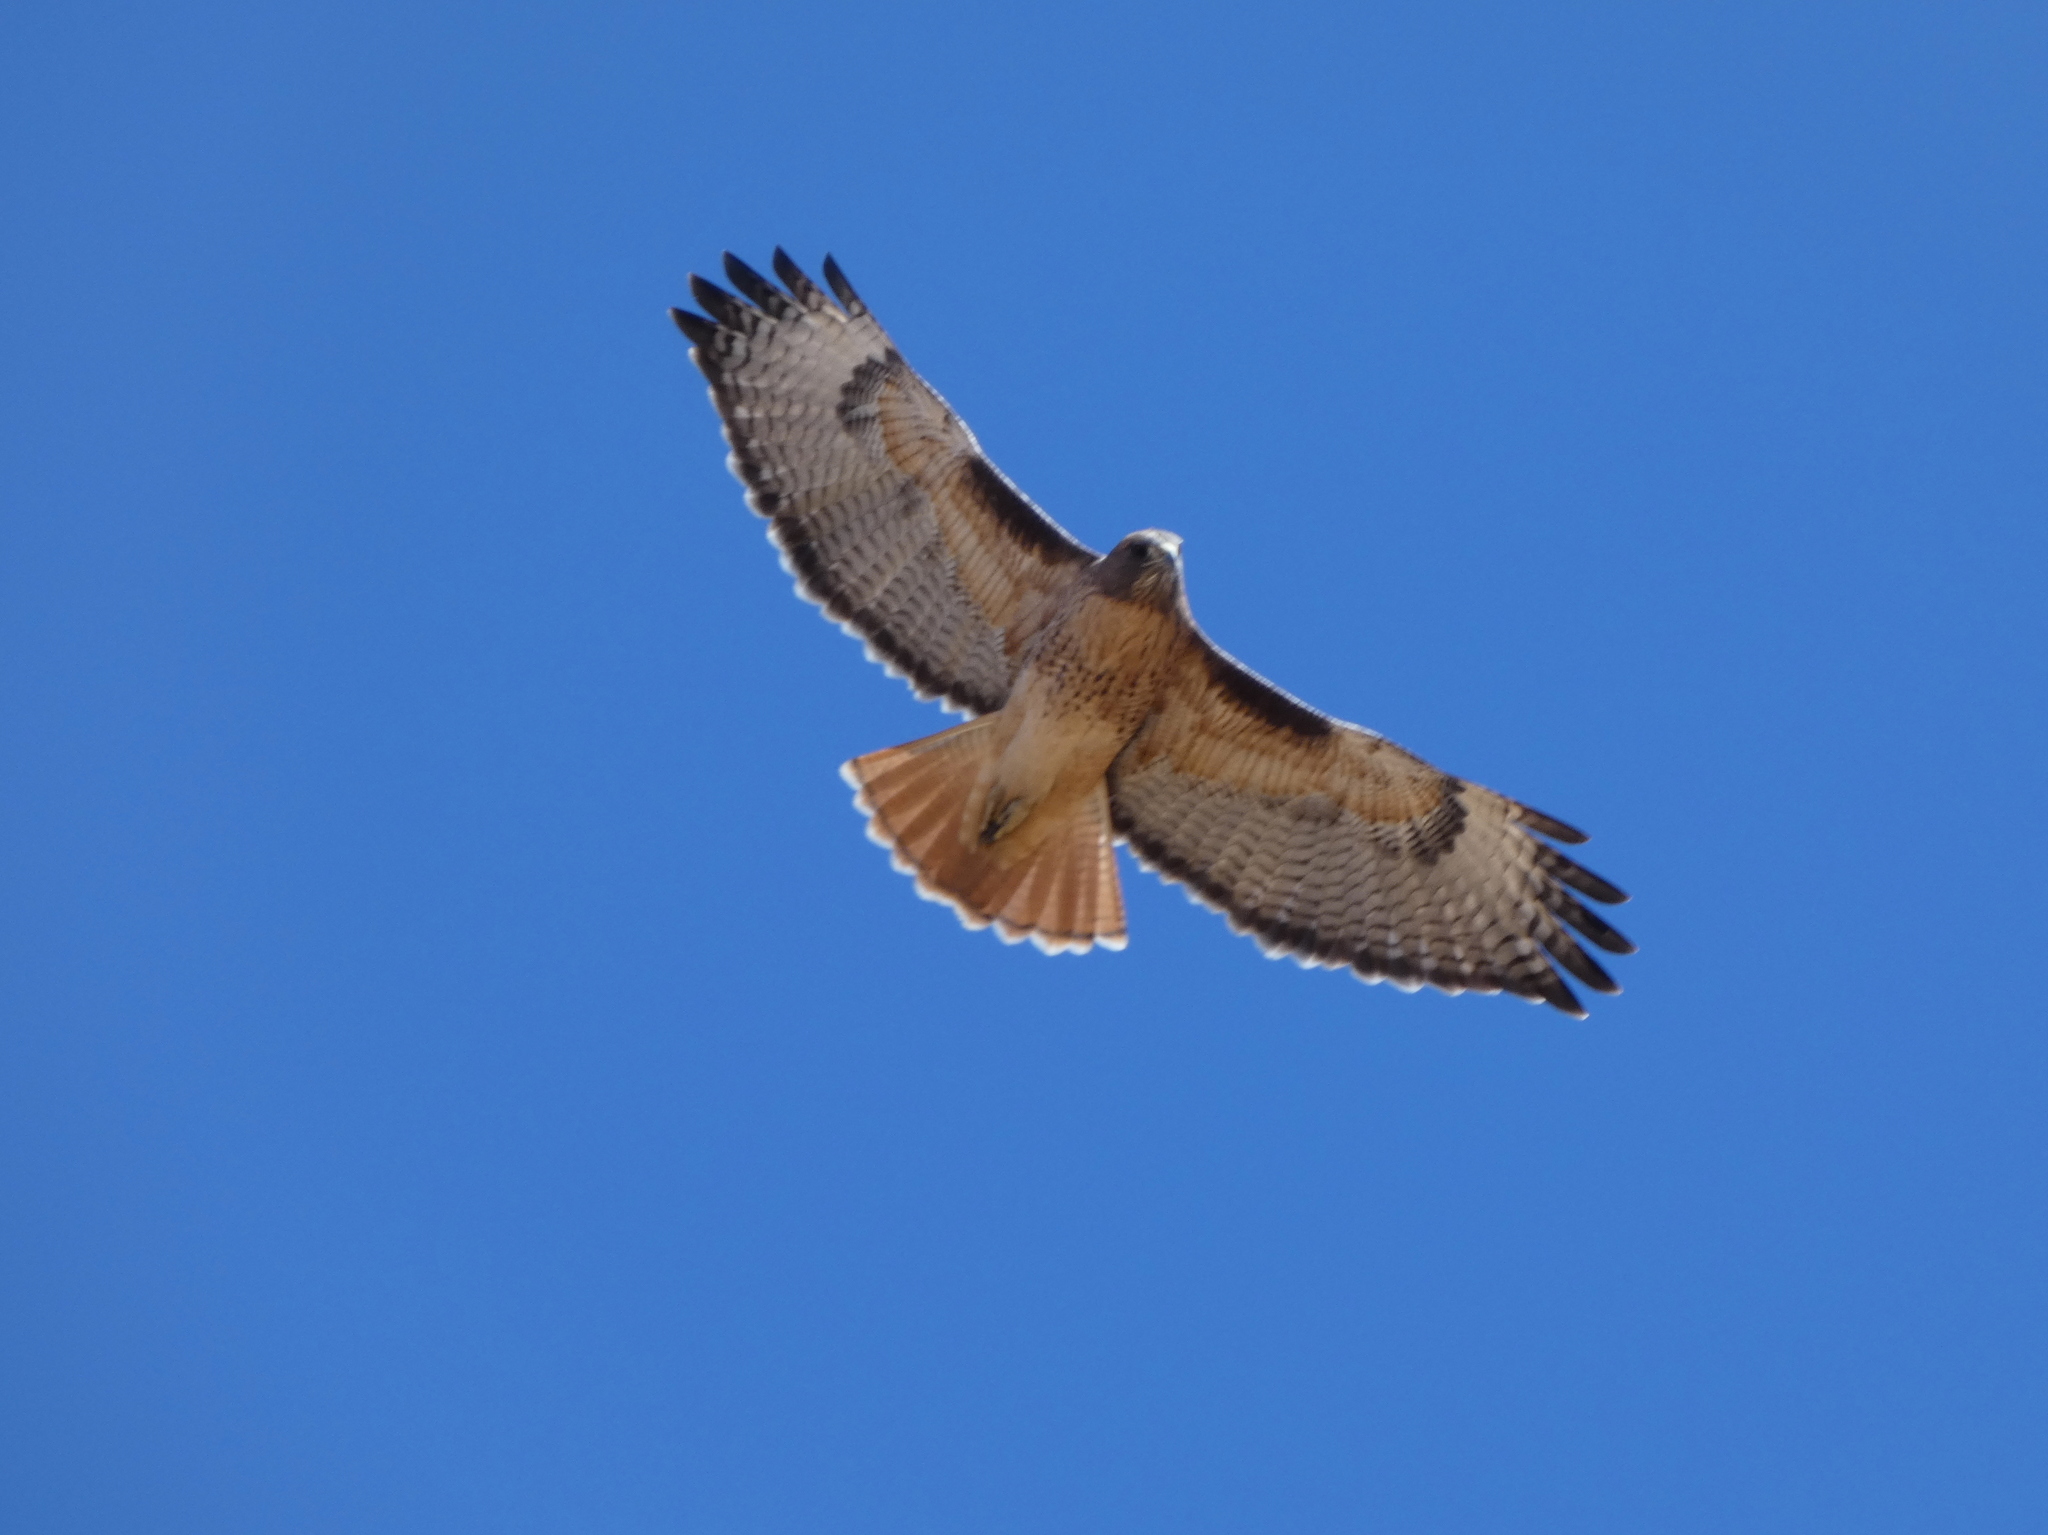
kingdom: Animalia
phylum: Chordata
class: Aves
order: Accipitriformes
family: Accipitridae
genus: Buteo
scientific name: Buteo jamaicensis
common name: Red-tailed hawk
